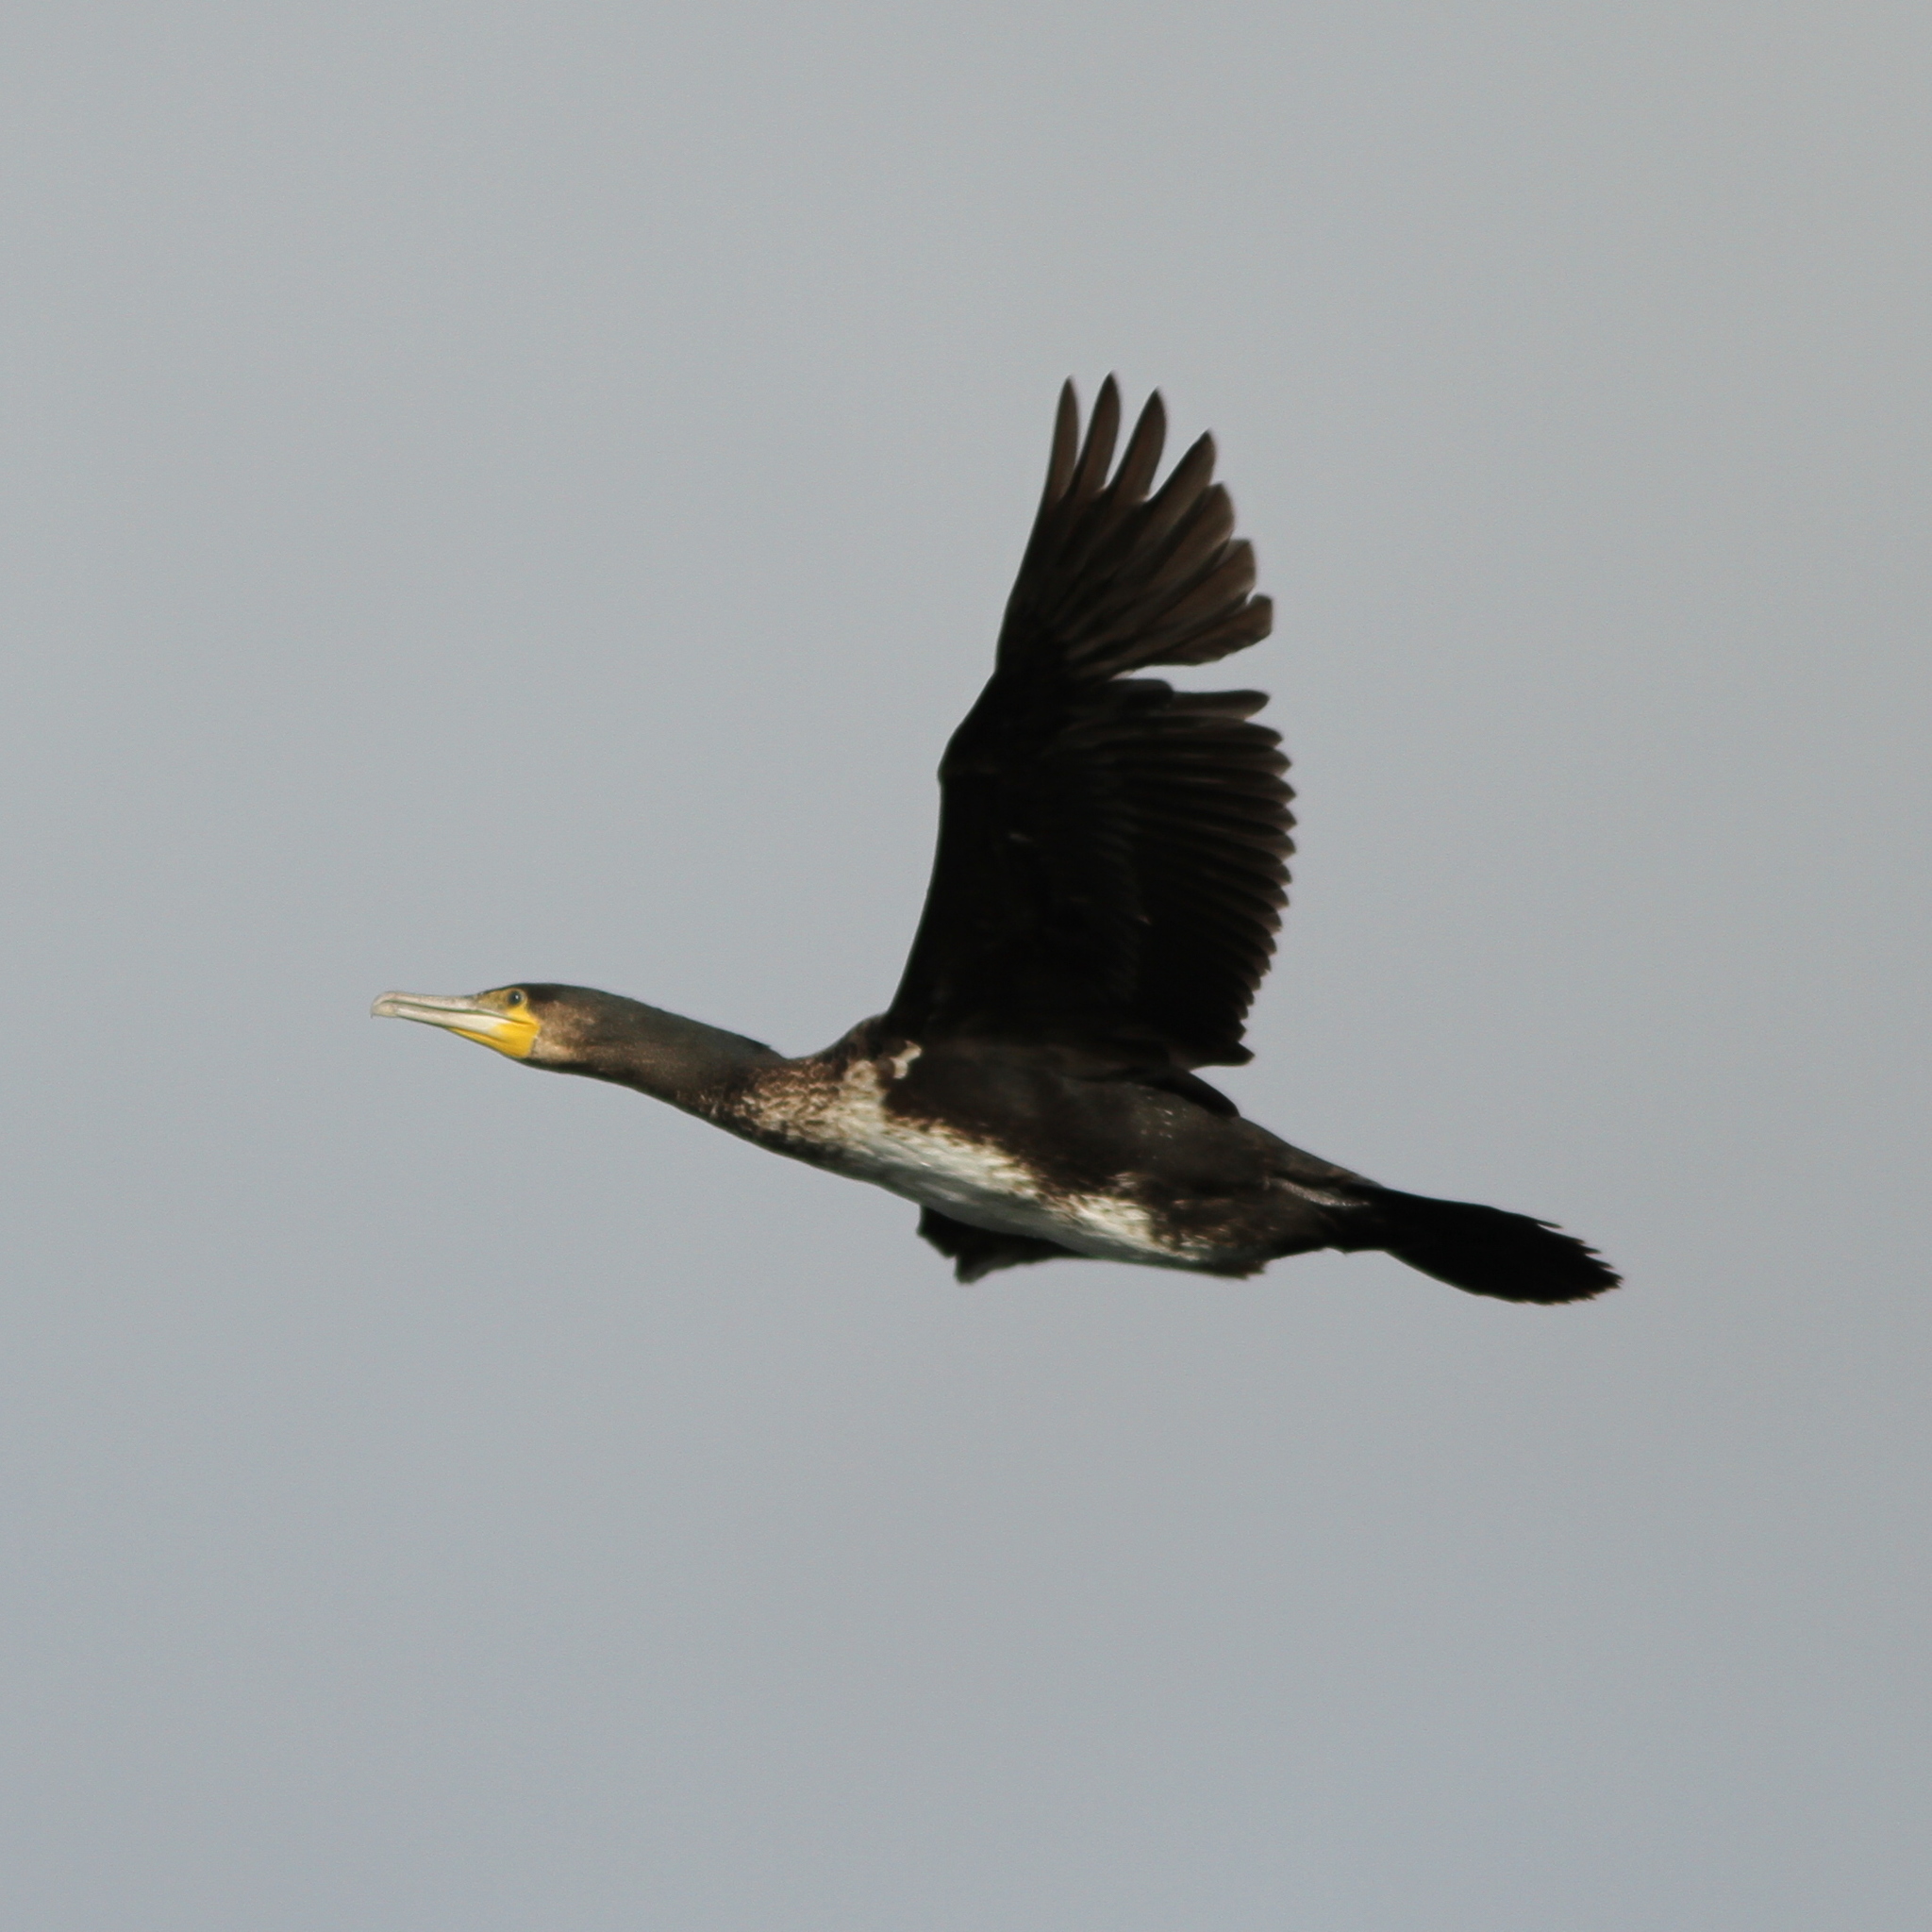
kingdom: Animalia
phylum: Chordata
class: Aves
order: Suliformes
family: Phalacrocoracidae
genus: Phalacrocorax
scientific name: Phalacrocorax carbo
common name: Great cormorant
